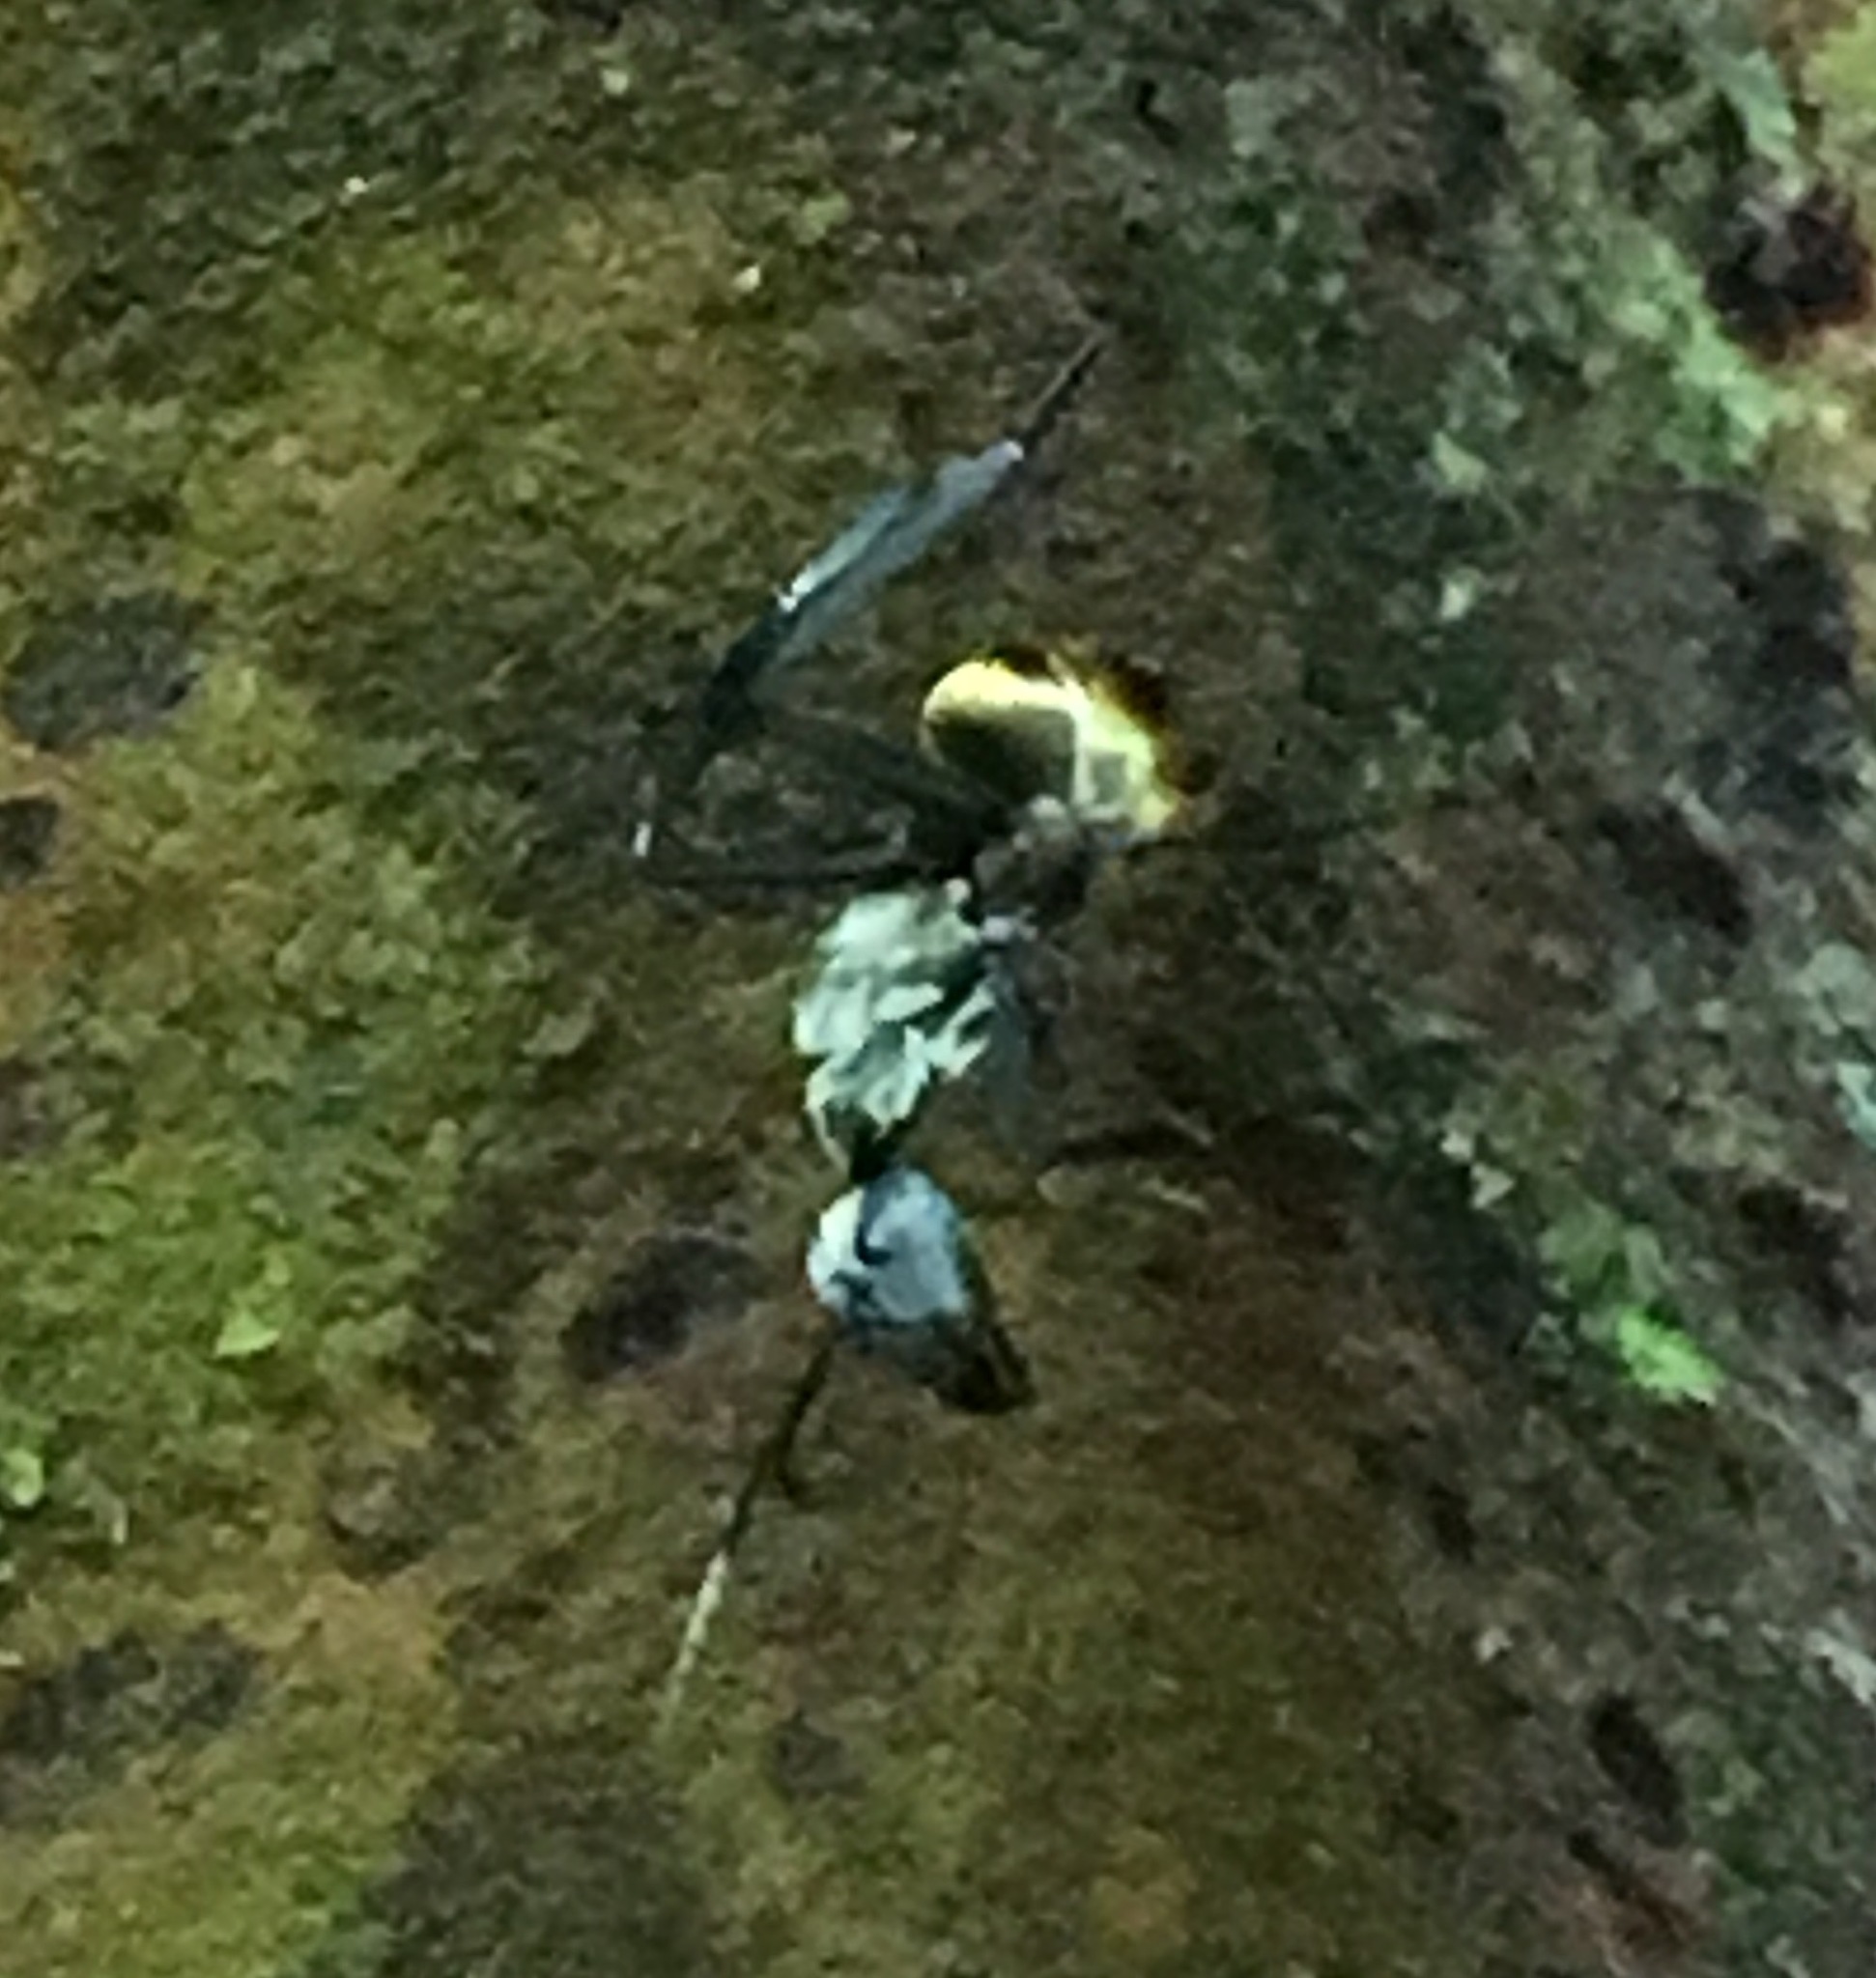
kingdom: Animalia
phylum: Arthropoda
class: Insecta
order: Hymenoptera
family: Formicidae
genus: Camponotus
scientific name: Camponotus sericeiventris
